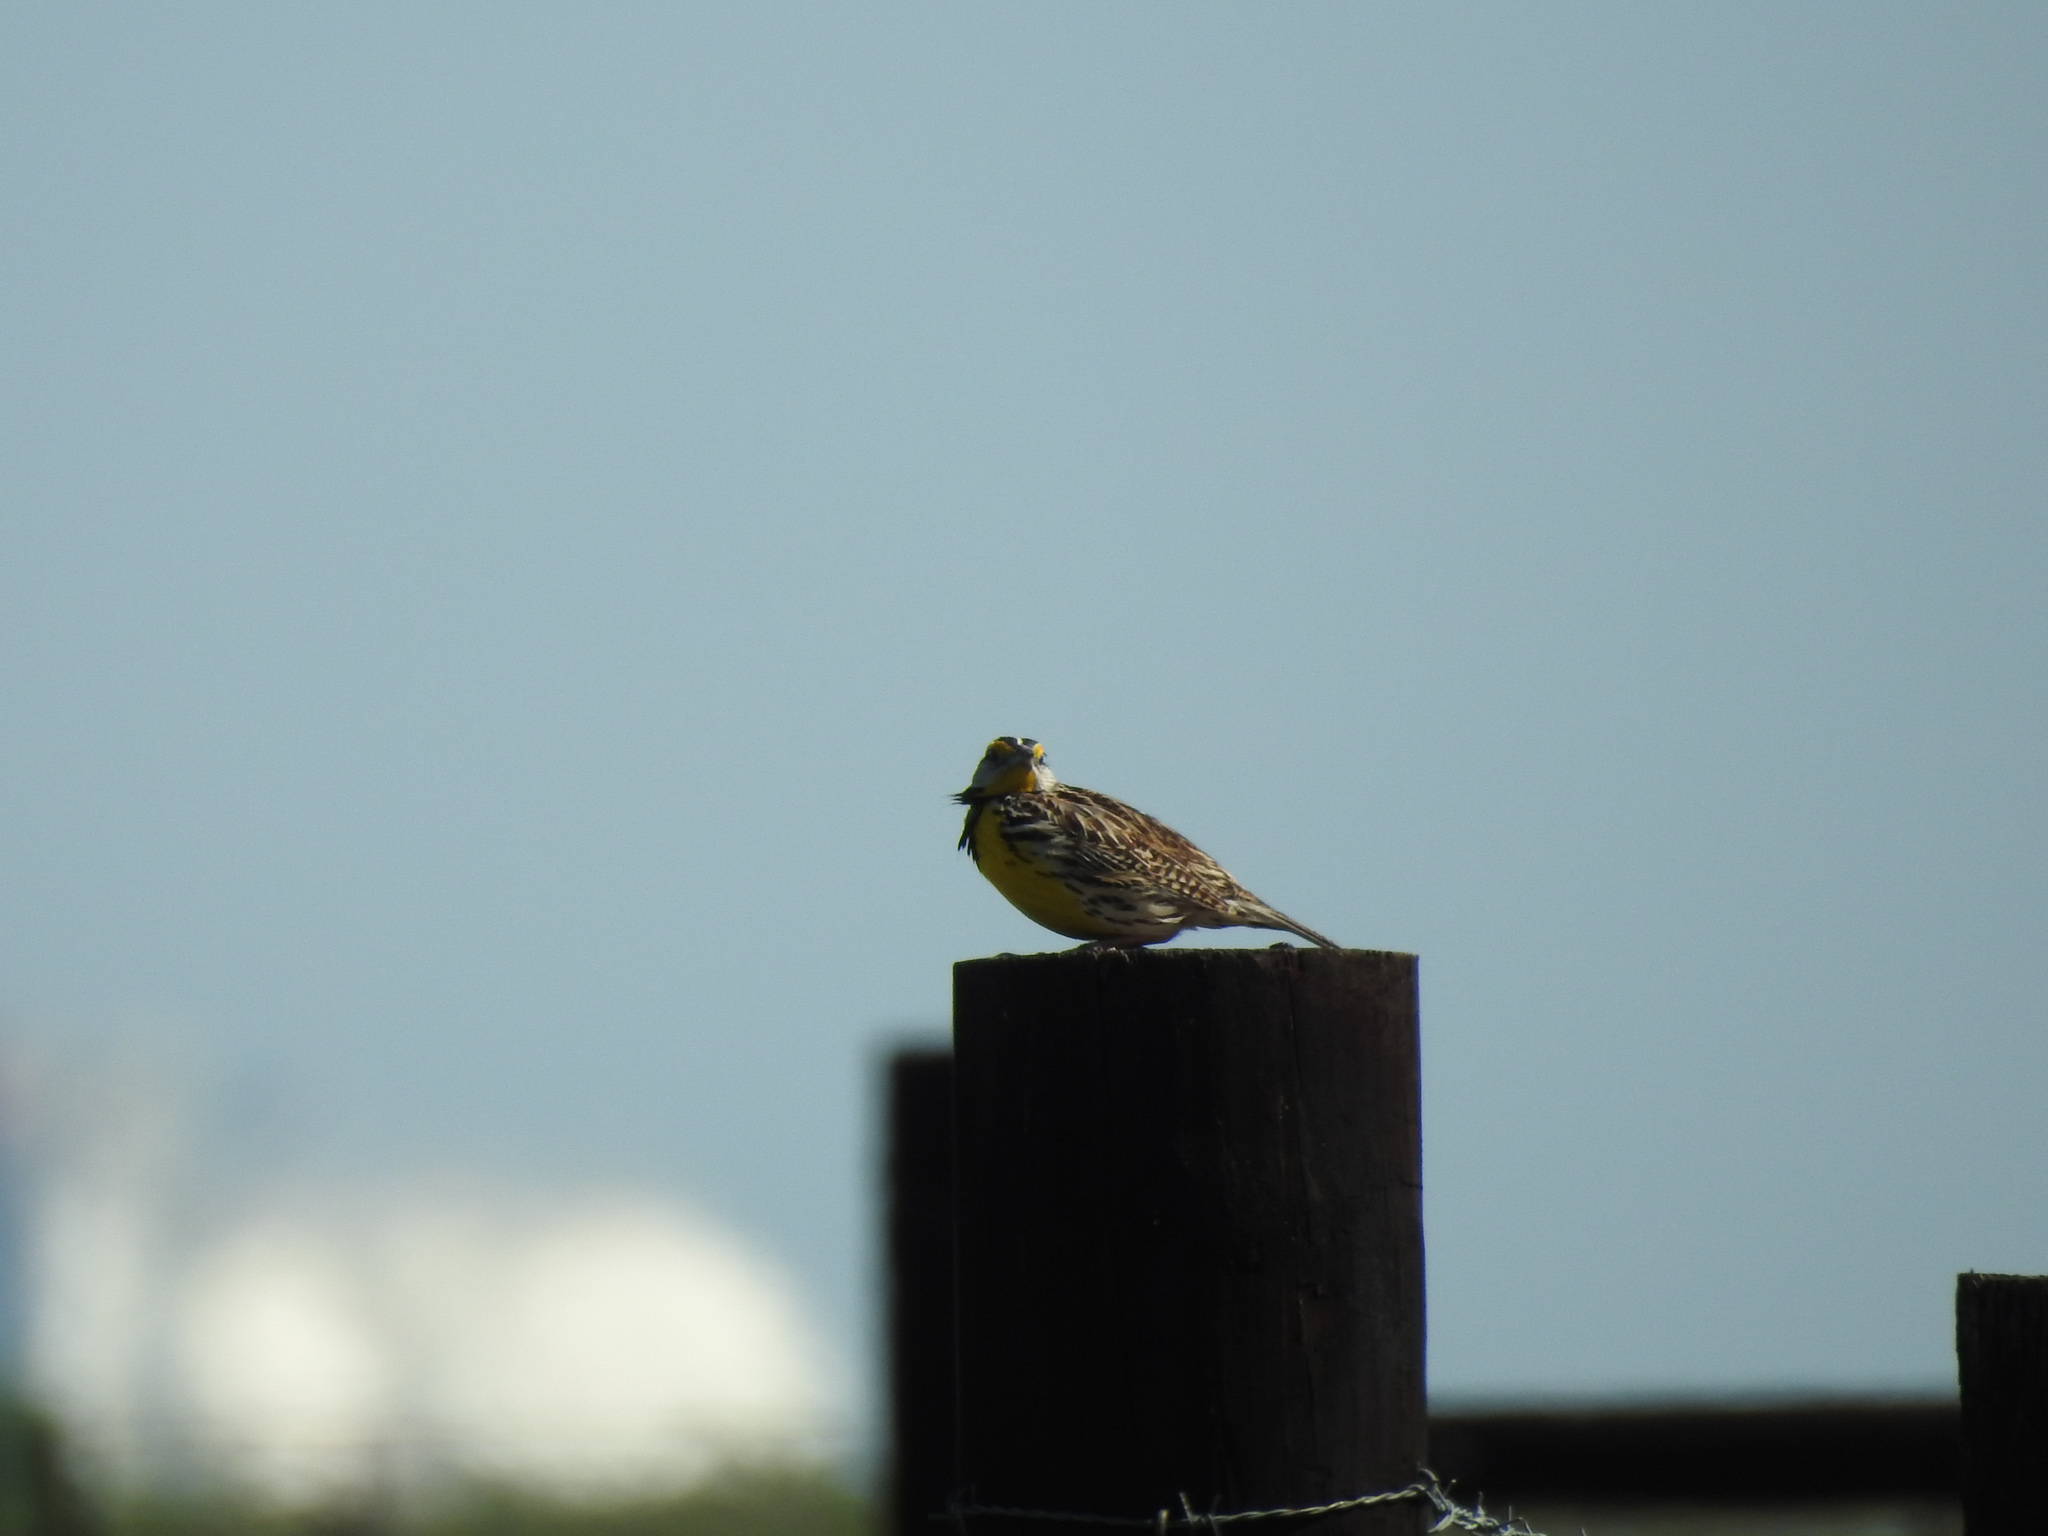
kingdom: Animalia
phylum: Chordata
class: Aves
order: Passeriformes
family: Icteridae
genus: Sturnella
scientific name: Sturnella magna
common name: Eastern meadowlark
